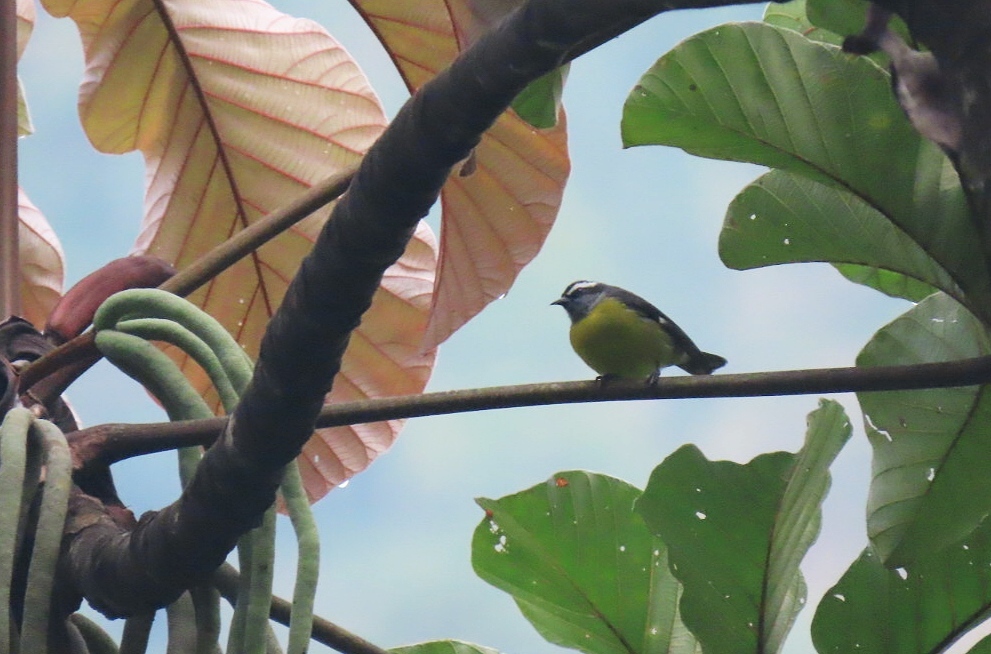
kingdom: Animalia
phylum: Chordata
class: Aves
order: Passeriformes
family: Thraupidae
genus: Coereba
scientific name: Coereba flaveola
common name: Bananaquit
